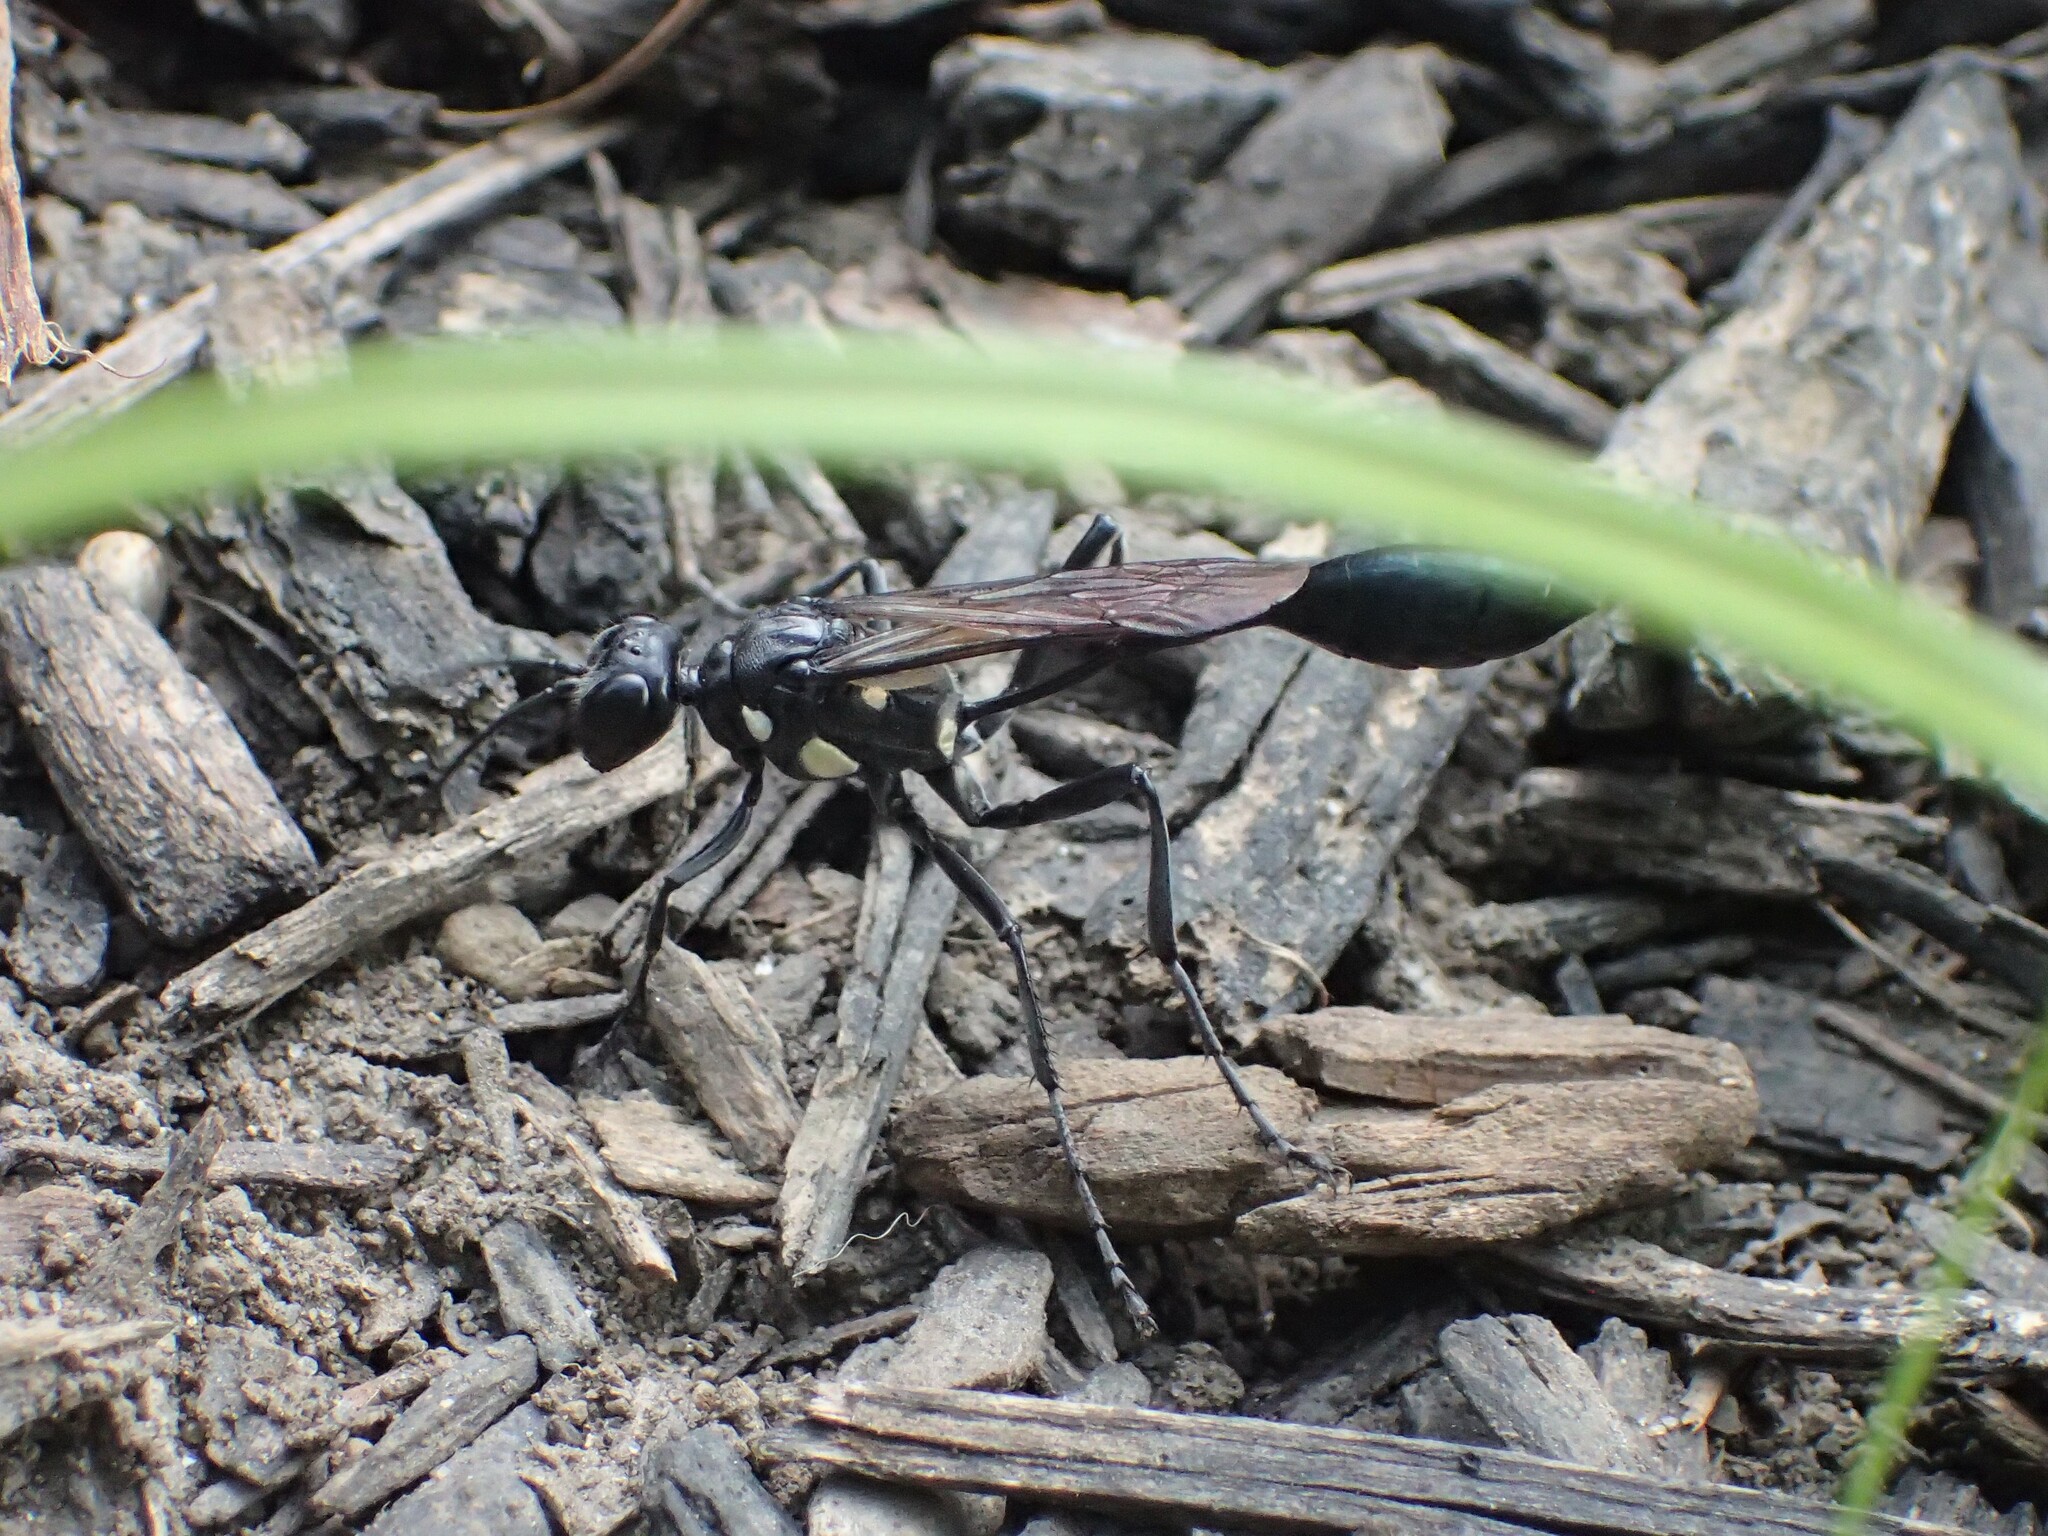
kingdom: Animalia
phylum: Arthropoda
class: Insecta
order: Hymenoptera
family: Sphecidae
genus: Eremnophila
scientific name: Eremnophila aureonotata
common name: Gold-marked thread-waisted wasp
